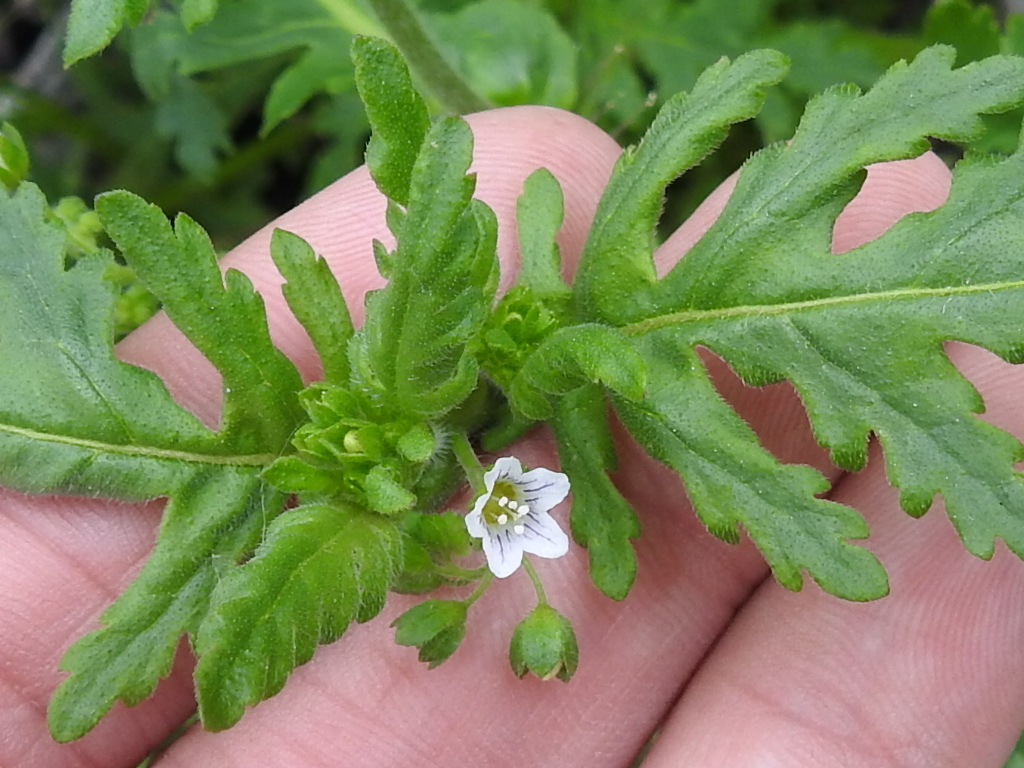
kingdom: Plantae
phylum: Tracheophyta
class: Magnoliopsida
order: Boraginales
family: Hydrophyllaceae
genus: Eucrypta
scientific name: Eucrypta chrysanthemifolia
